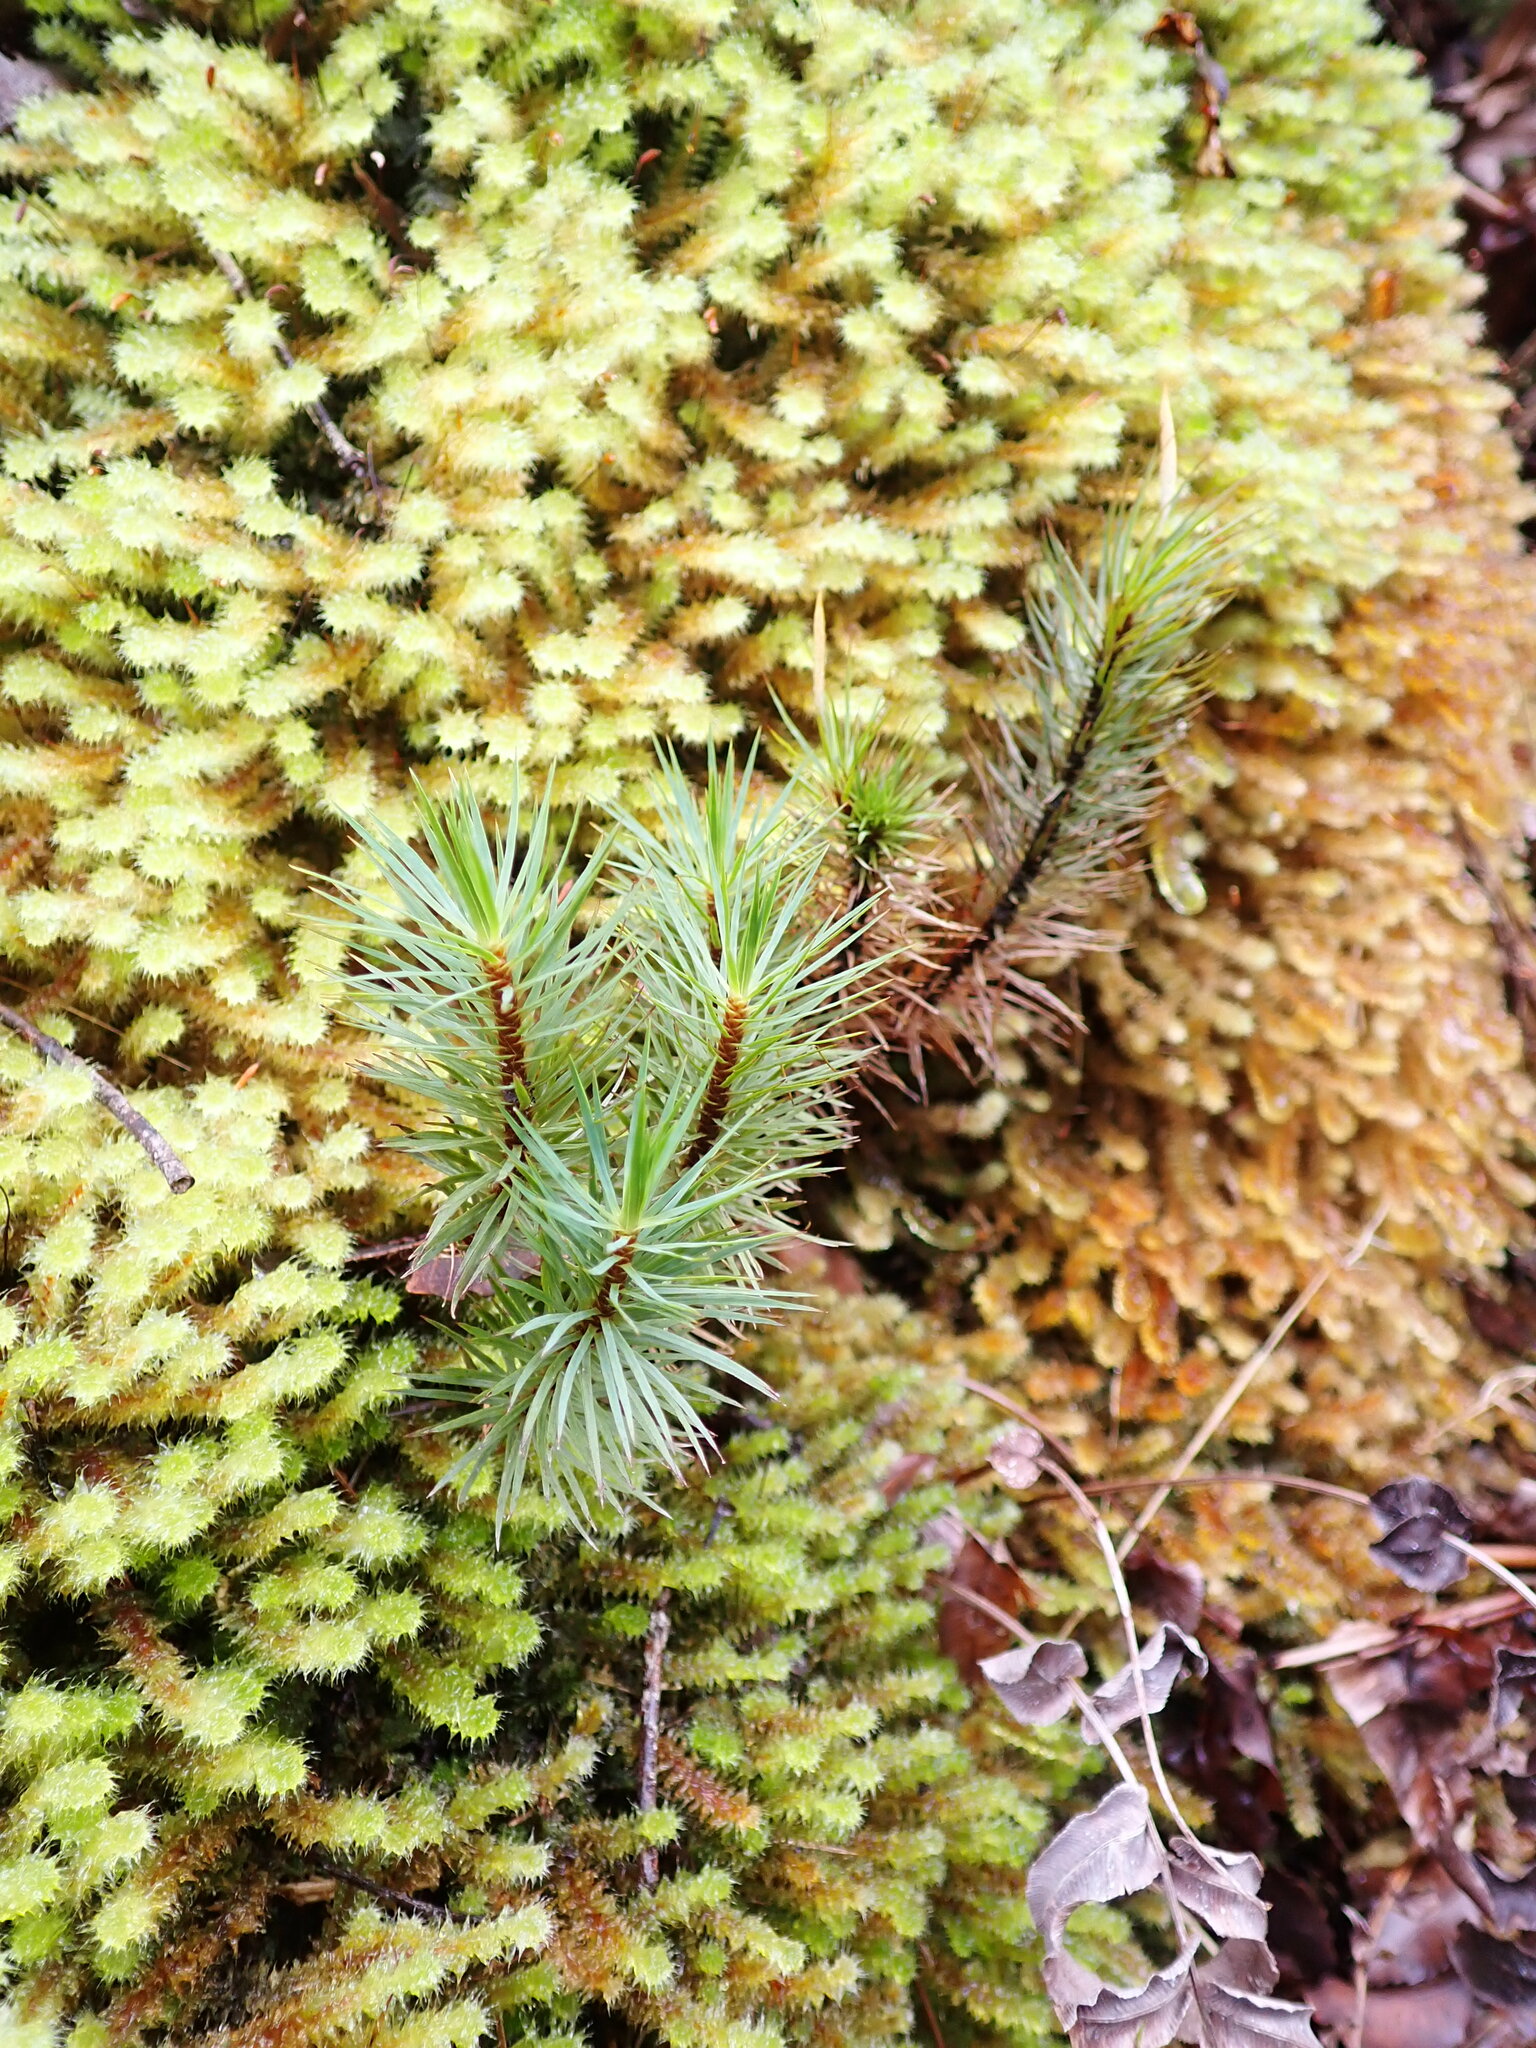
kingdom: Plantae
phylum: Bryophyta
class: Polytrichopsida
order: Polytrichales
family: Polytrichaceae
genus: Dawsonia
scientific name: Dawsonia superba
